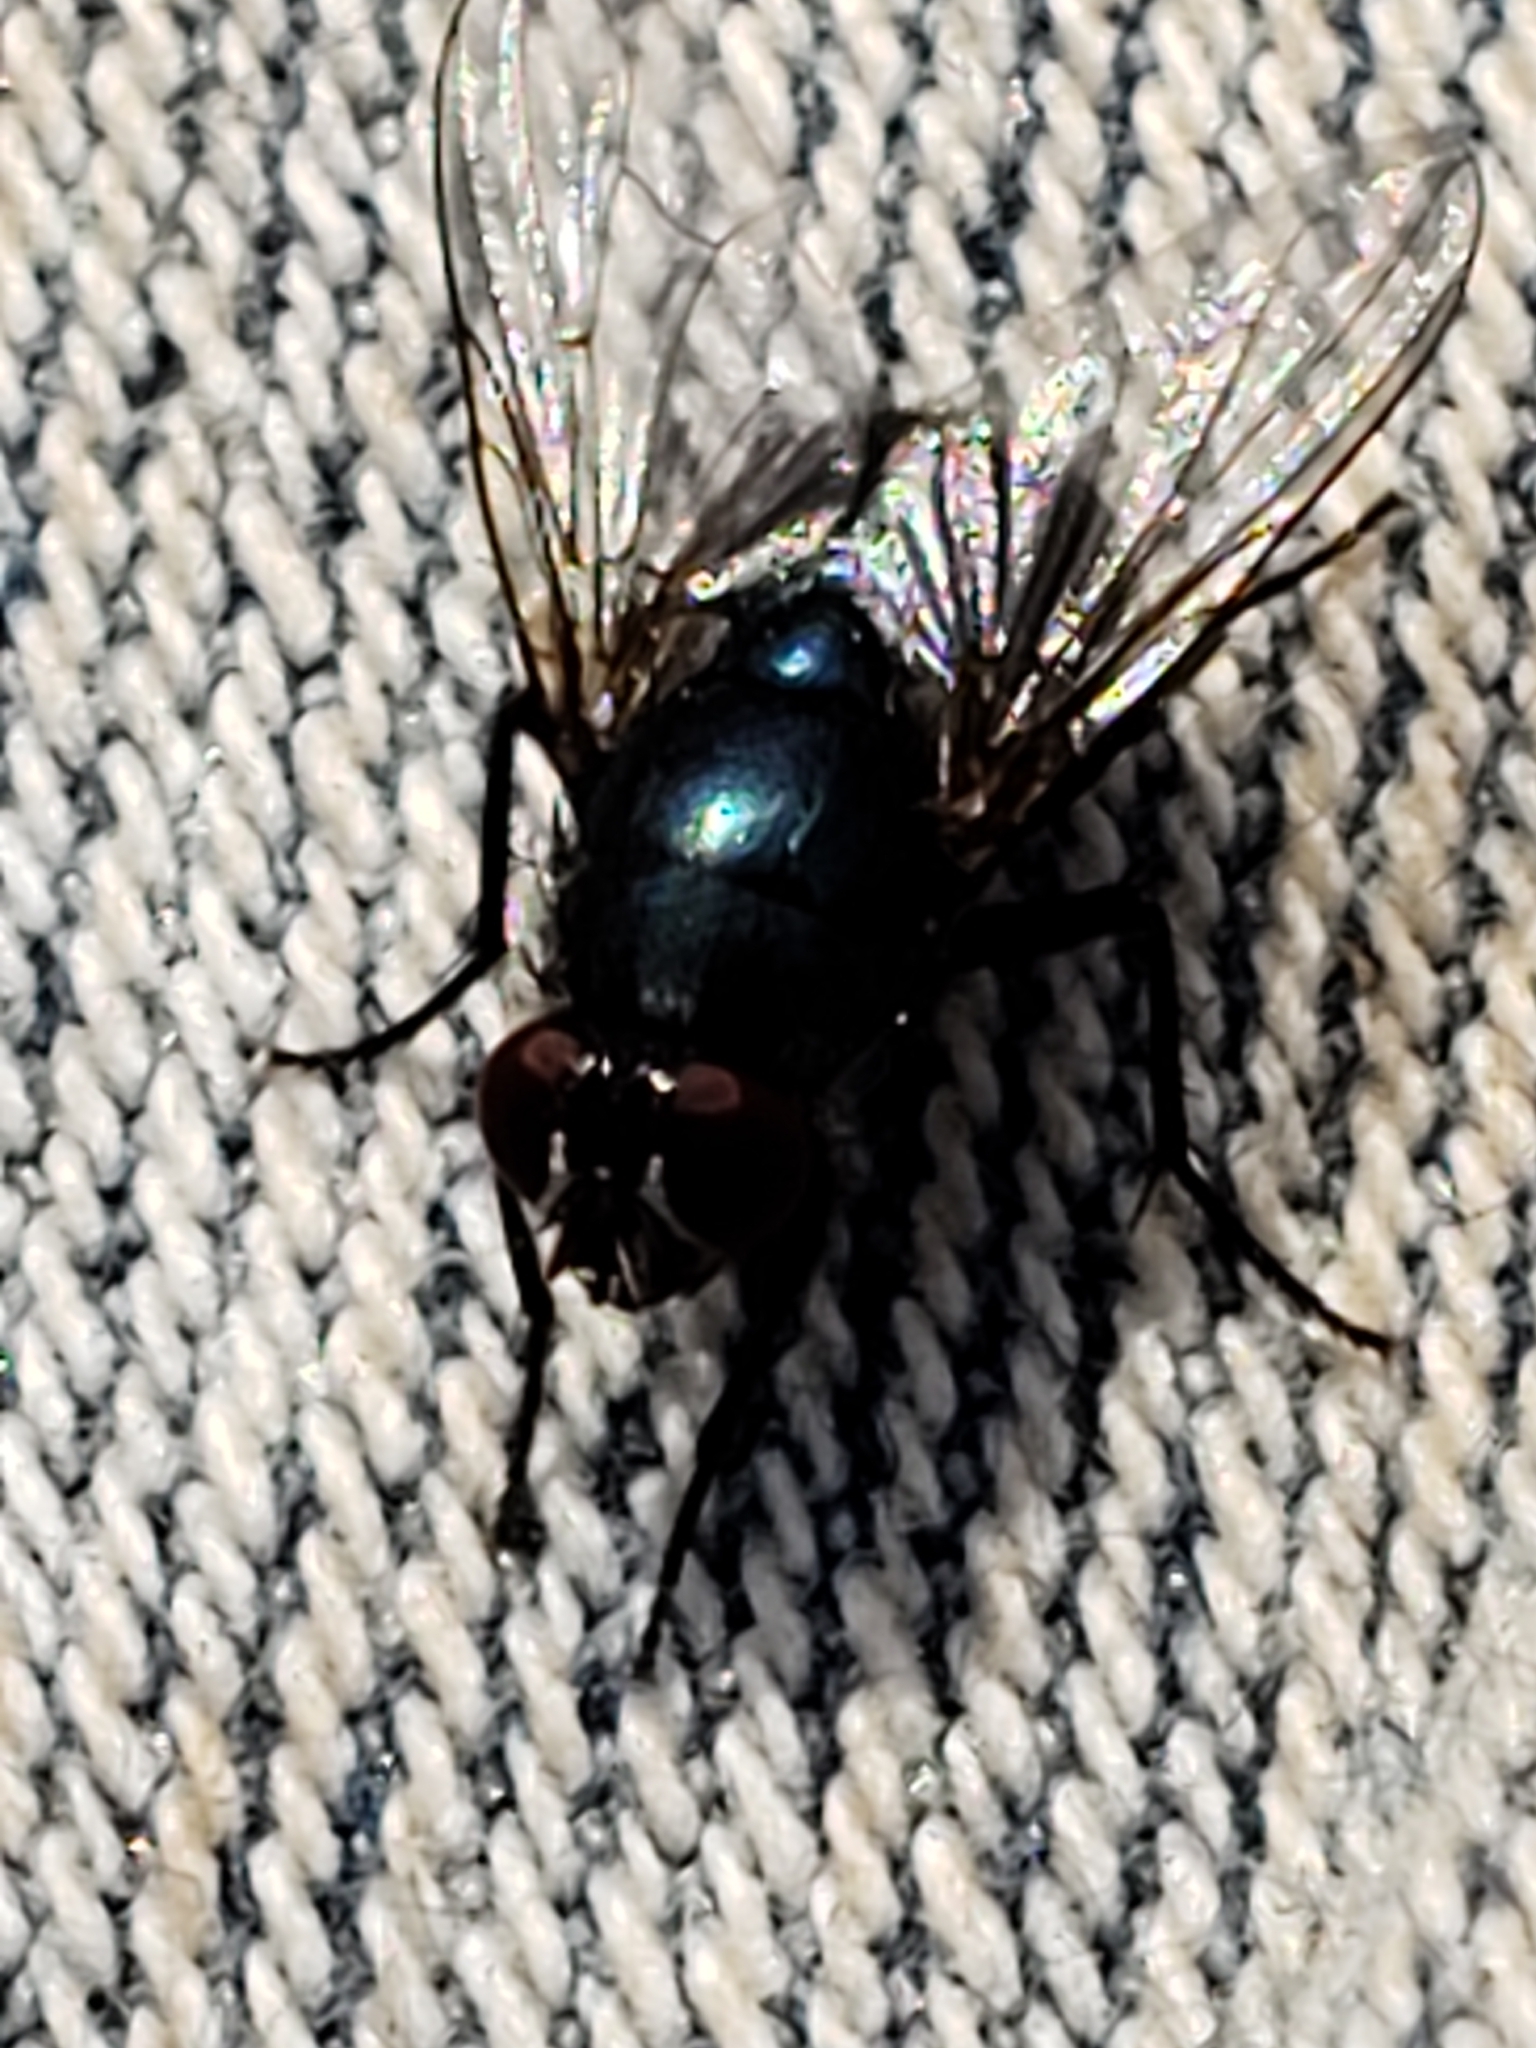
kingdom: Animalia
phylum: Arthropoda
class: Insecta
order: Diptera
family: Muscidae
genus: Eudasyphora
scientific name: Eudasyphora cyanicolor
